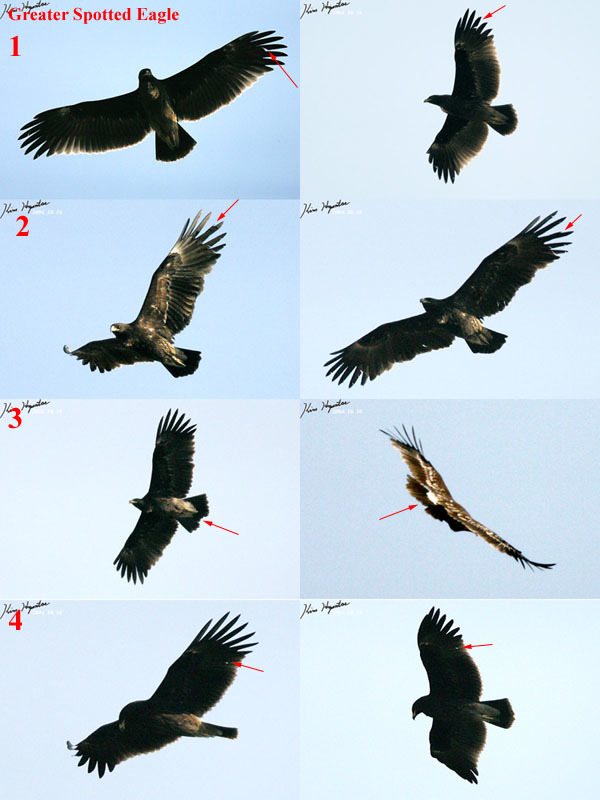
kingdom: Animalia
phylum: Chordata
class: Aves
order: Accipitriformes
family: Accipitridae
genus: Aquila
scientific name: Aquila clanga
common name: Greater spotted eagle
